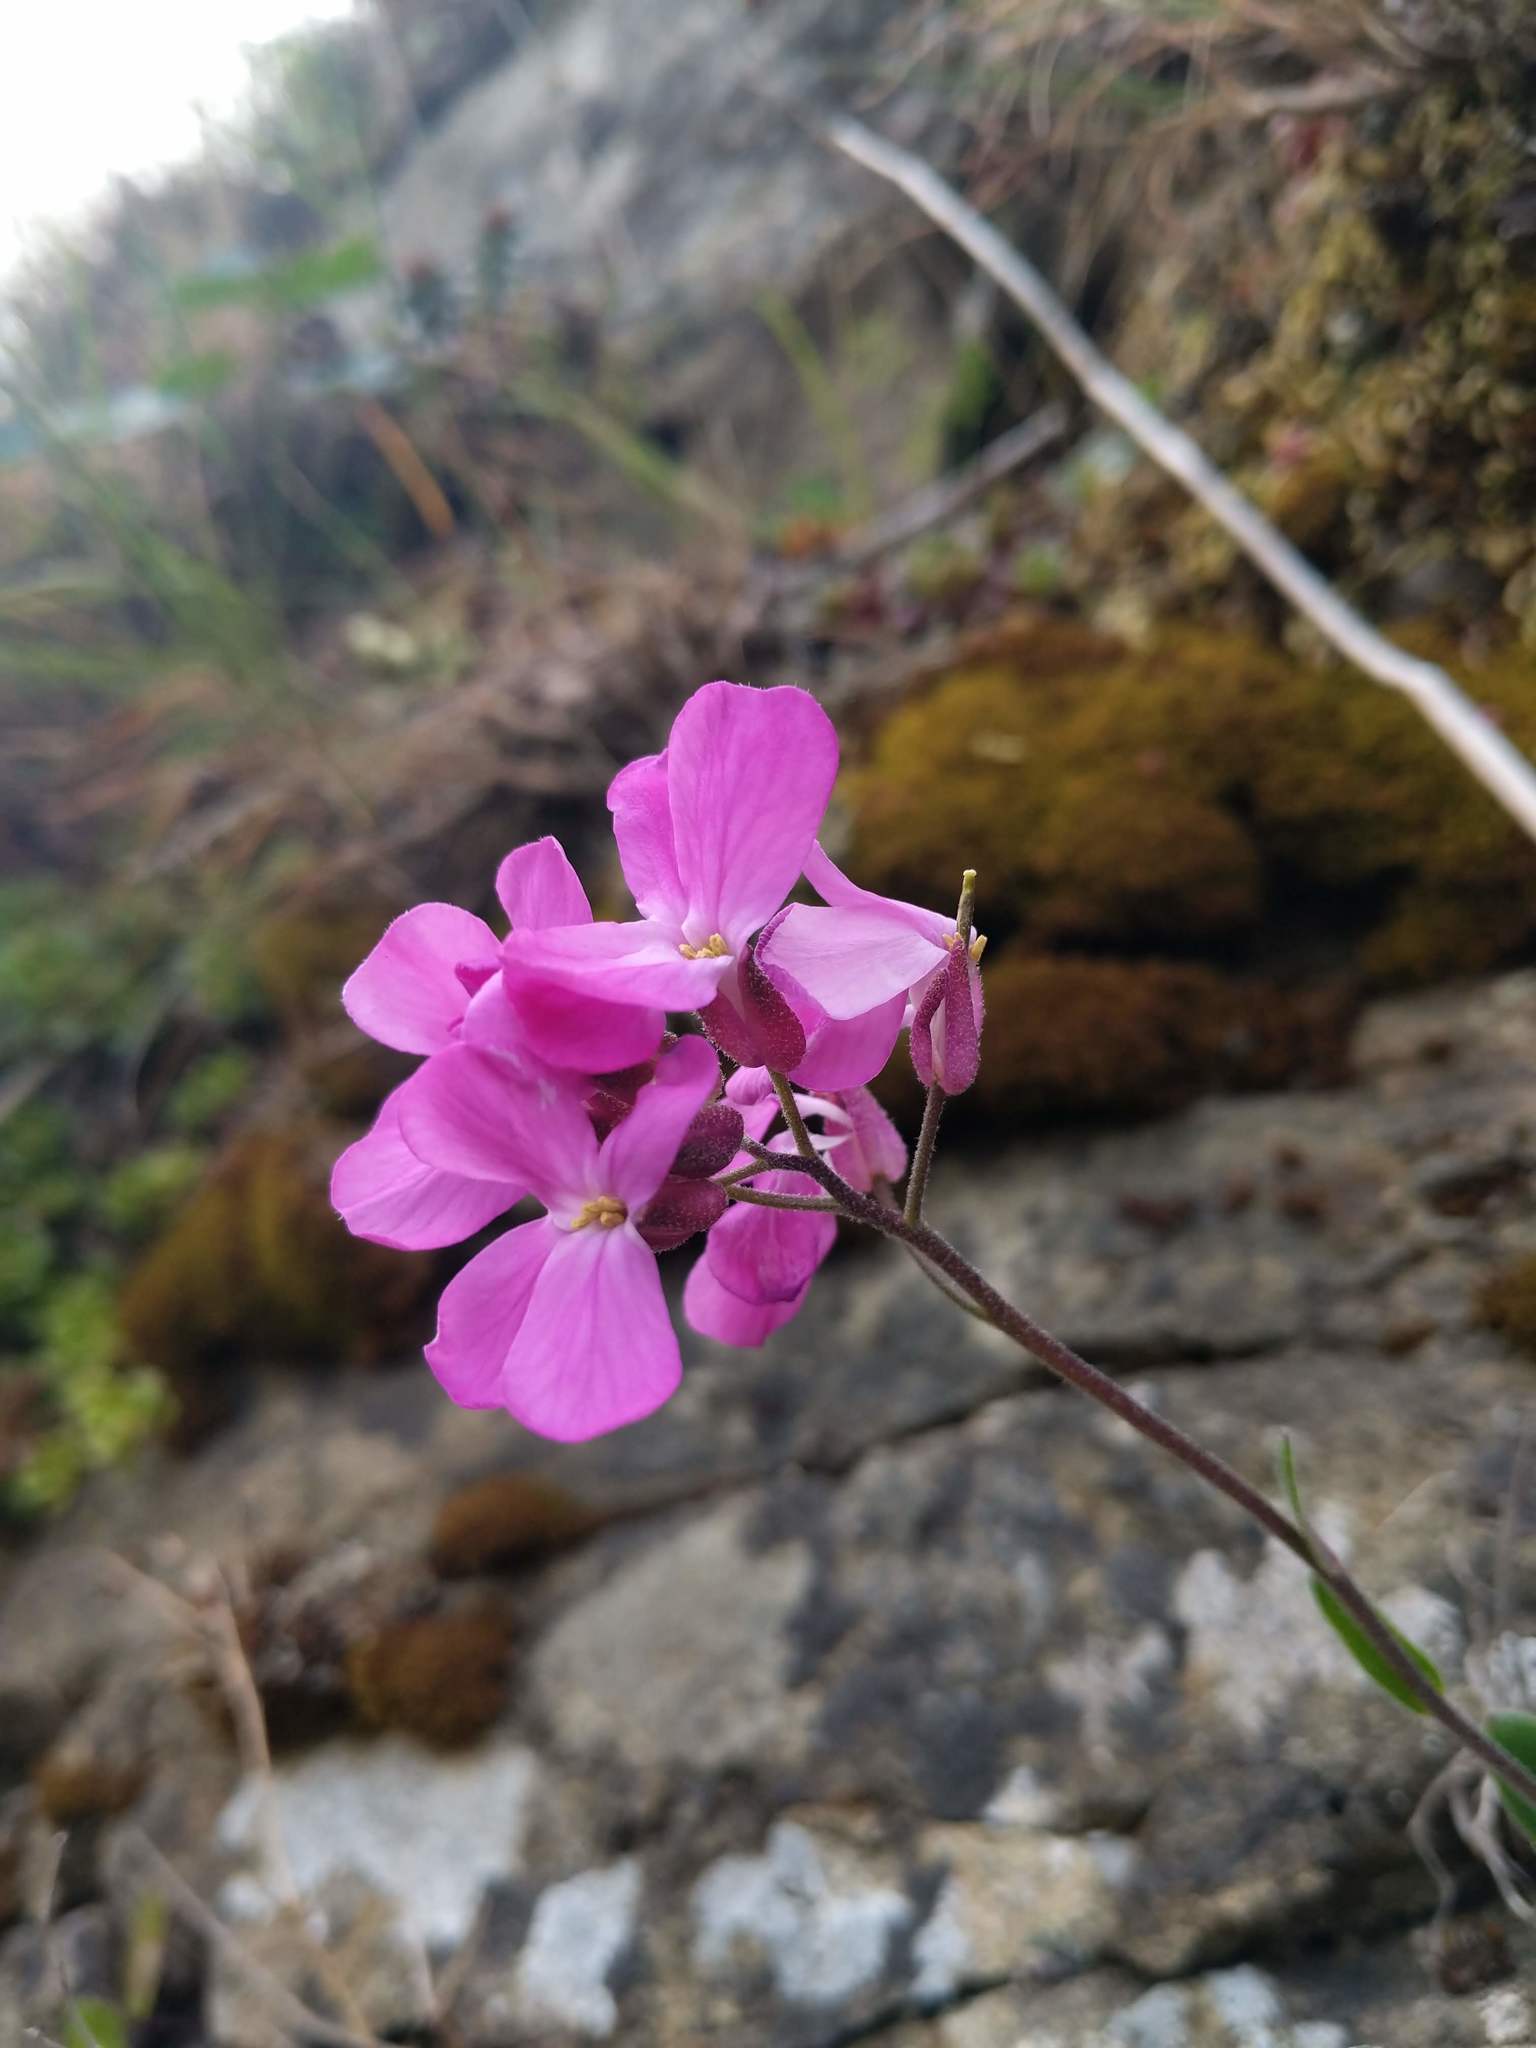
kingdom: Plantae
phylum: Tracheophyta
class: Magnoliopsida
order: Brassicales
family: Brassicaceae
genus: Arabis
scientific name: Arabis blepharophylla
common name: Rose rockcress
